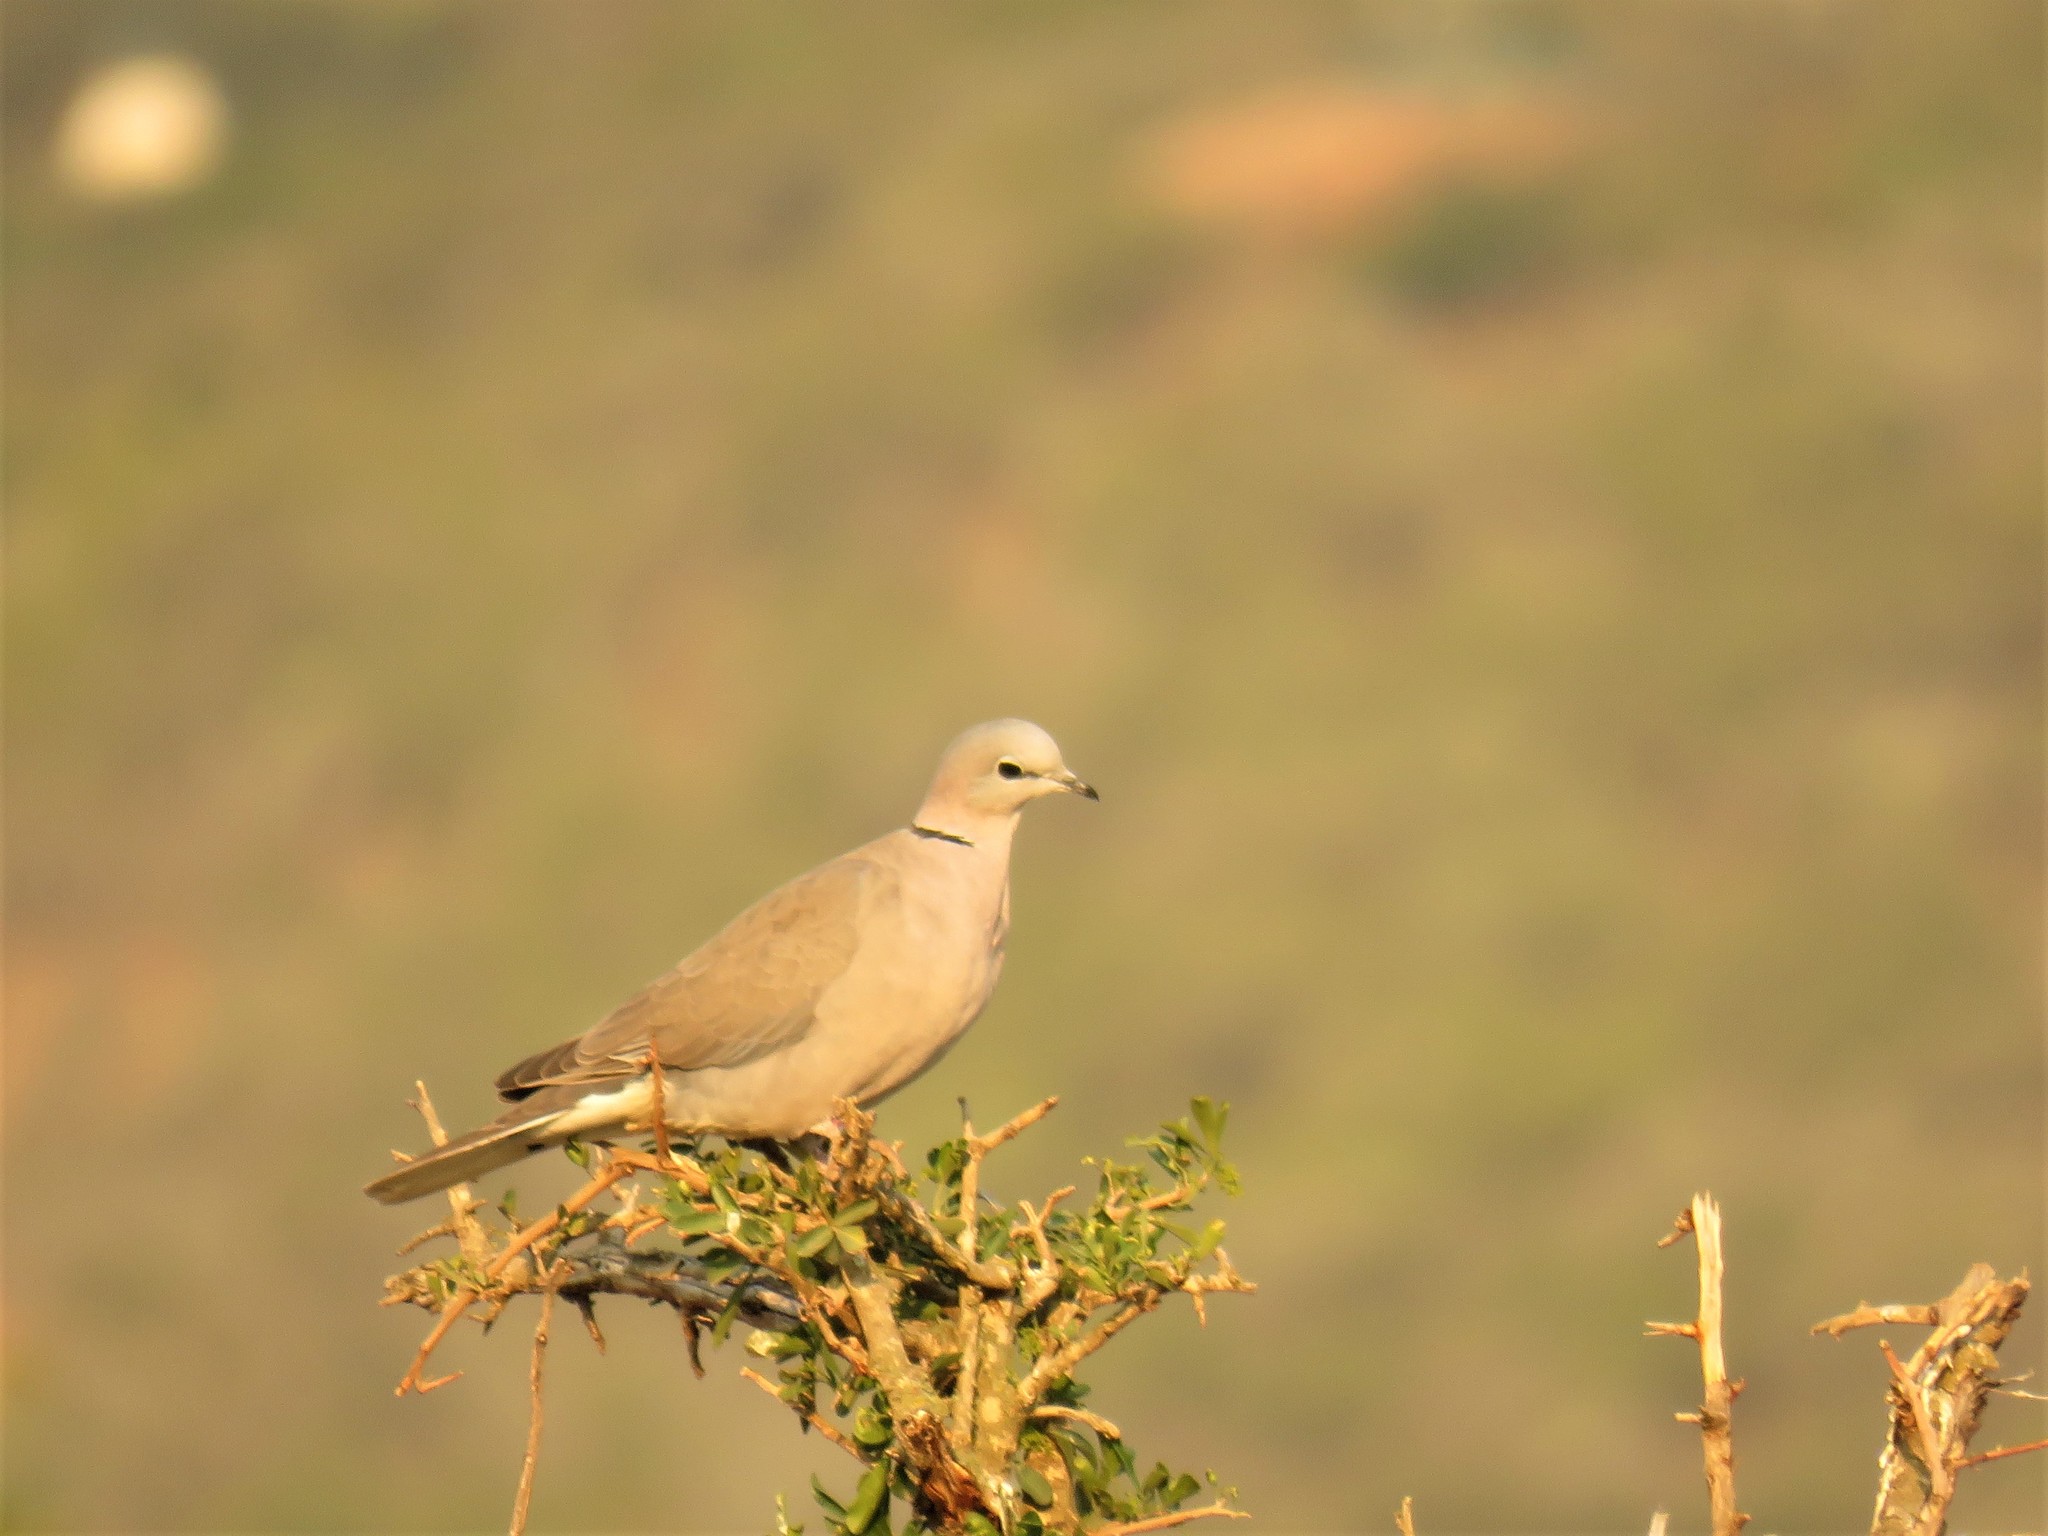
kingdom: Animalia
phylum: Chordata
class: Aves
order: Columbiformes
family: Columbidae
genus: Streptopelia
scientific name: Streptopelia capicola
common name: Ring-necked dove
